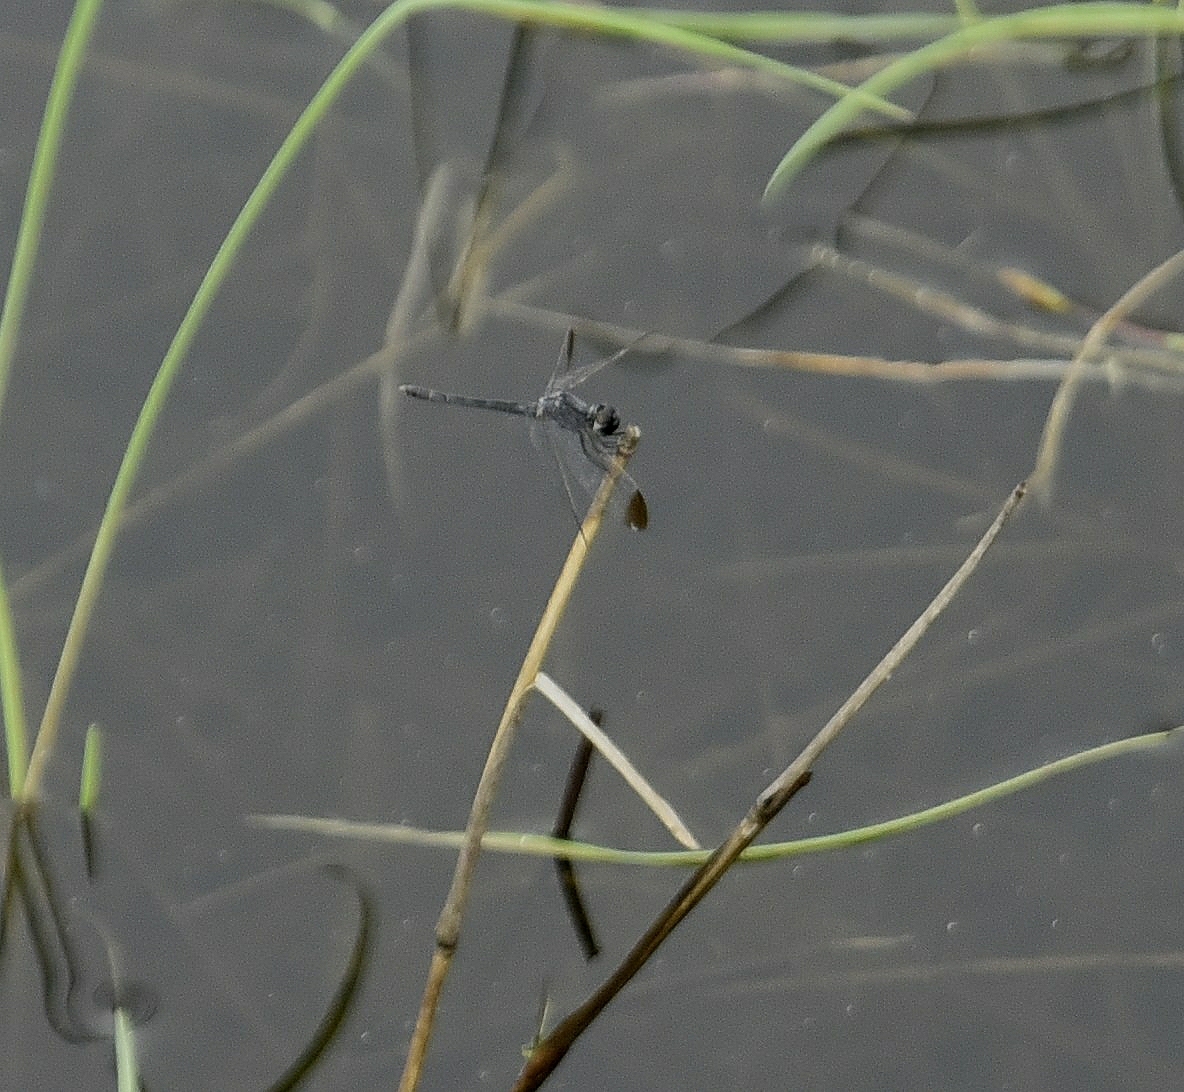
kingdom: Animalia
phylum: Arthropoda
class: Insecta
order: Odonata
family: Libellulidae
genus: Diplacodes
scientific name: Diplacodes nebulosa
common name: Black-tipped percher
